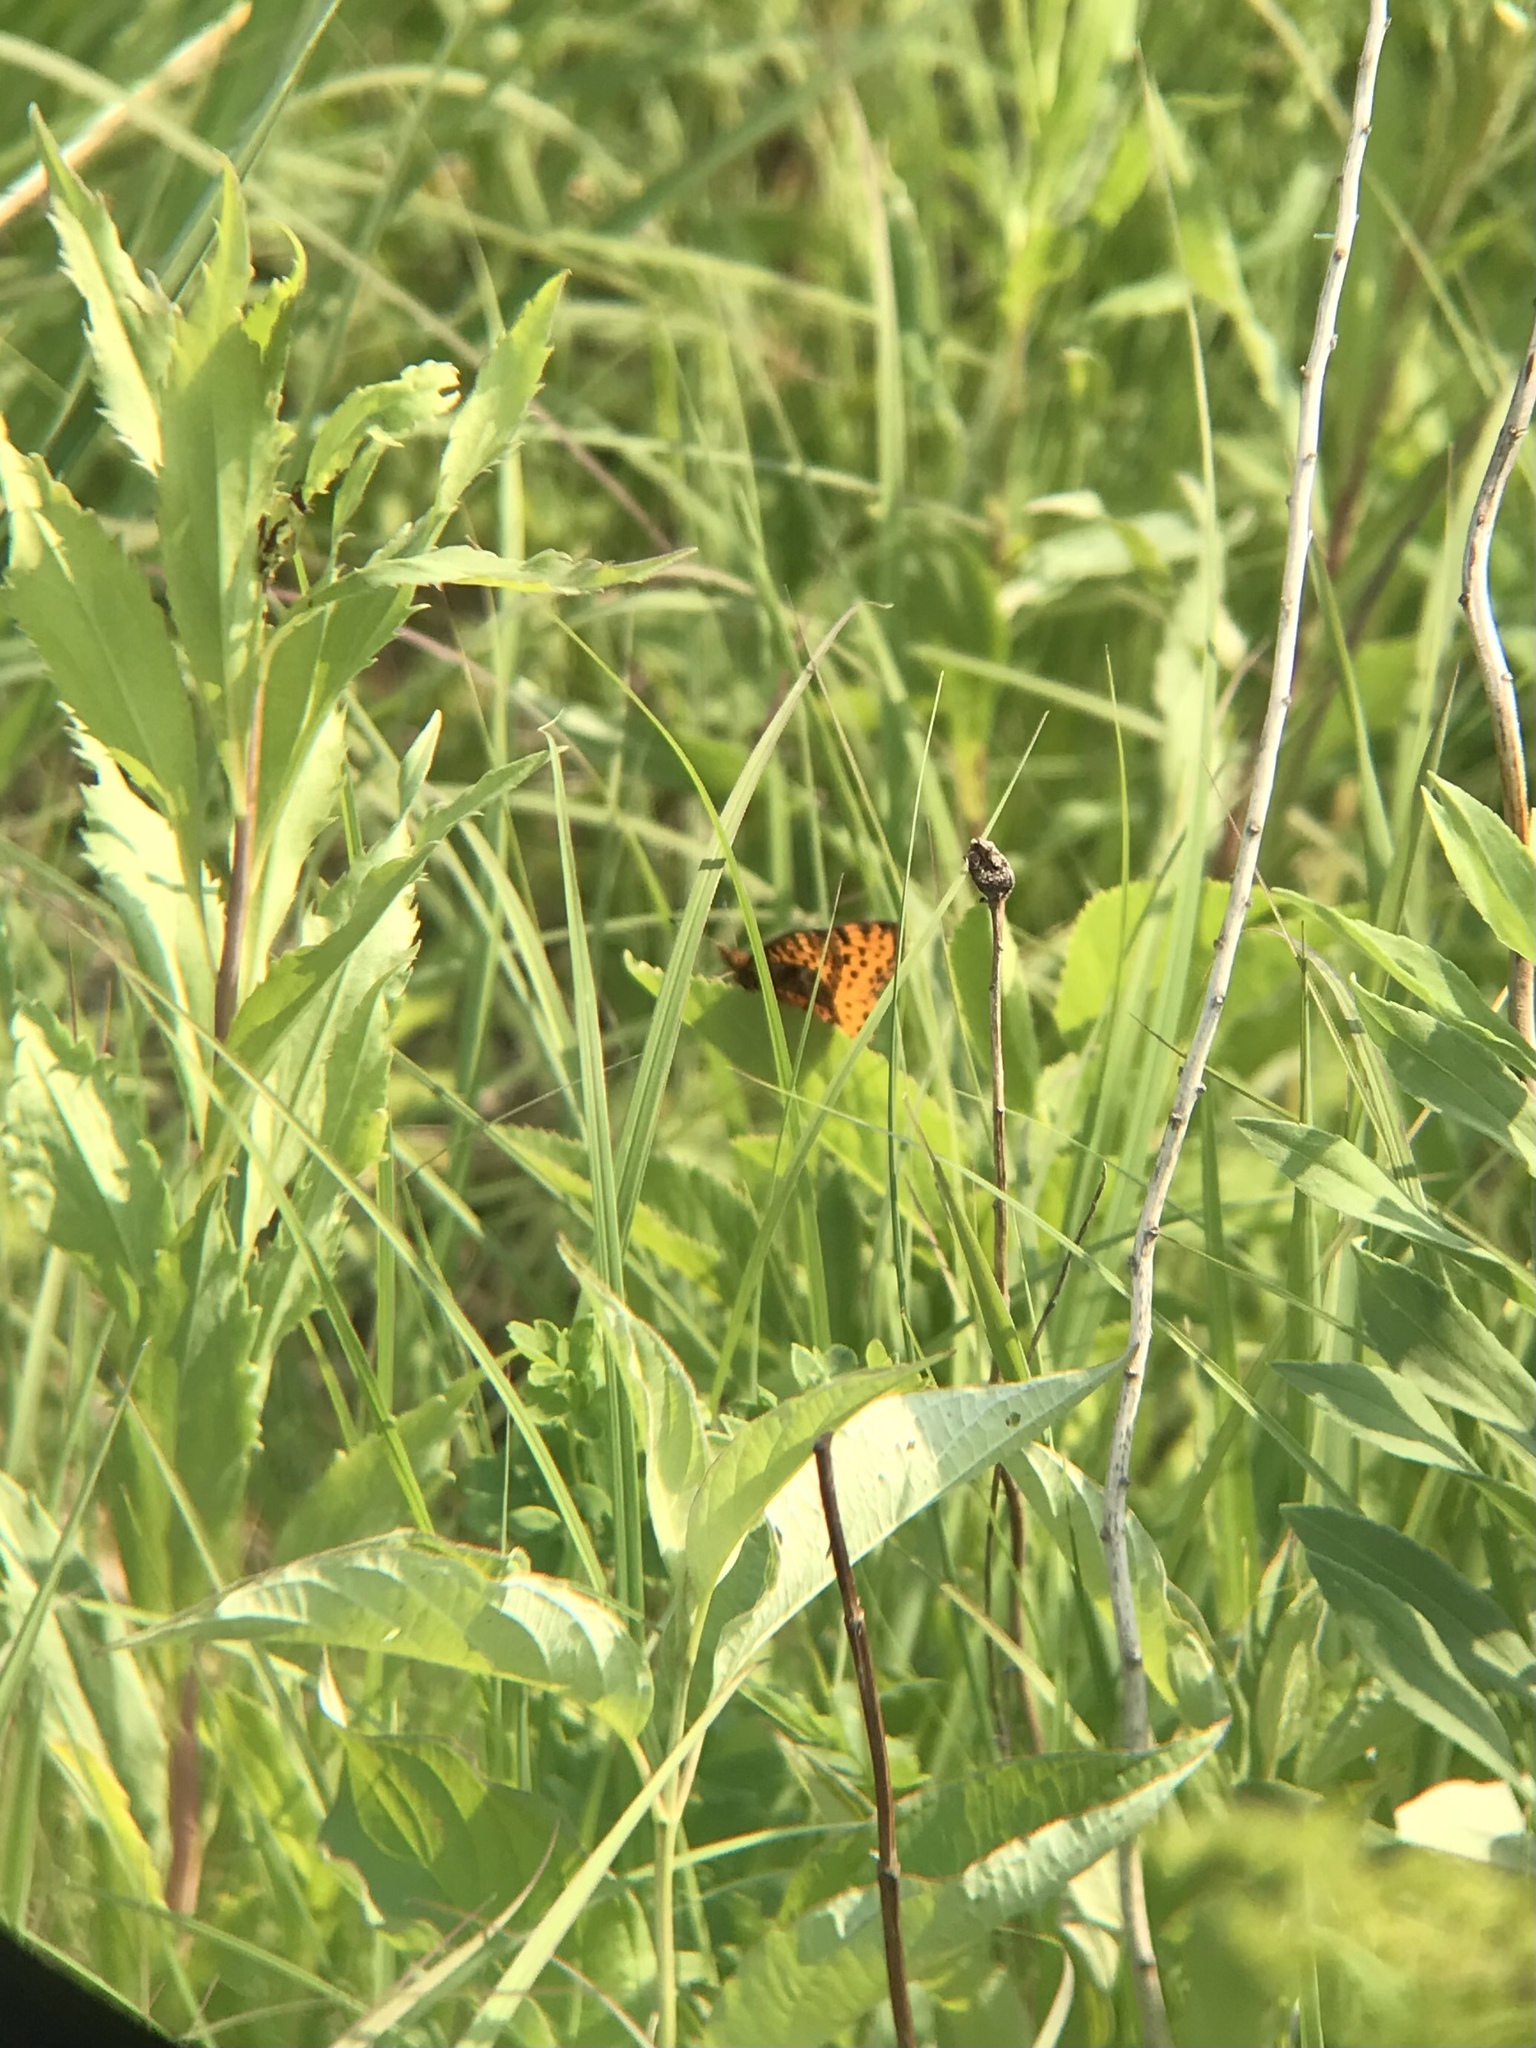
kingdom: Animalia
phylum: Arthropoda
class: Insecta
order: Lepidoptera
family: Nymphalidae
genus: Clossiana
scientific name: Clossiana toddi
